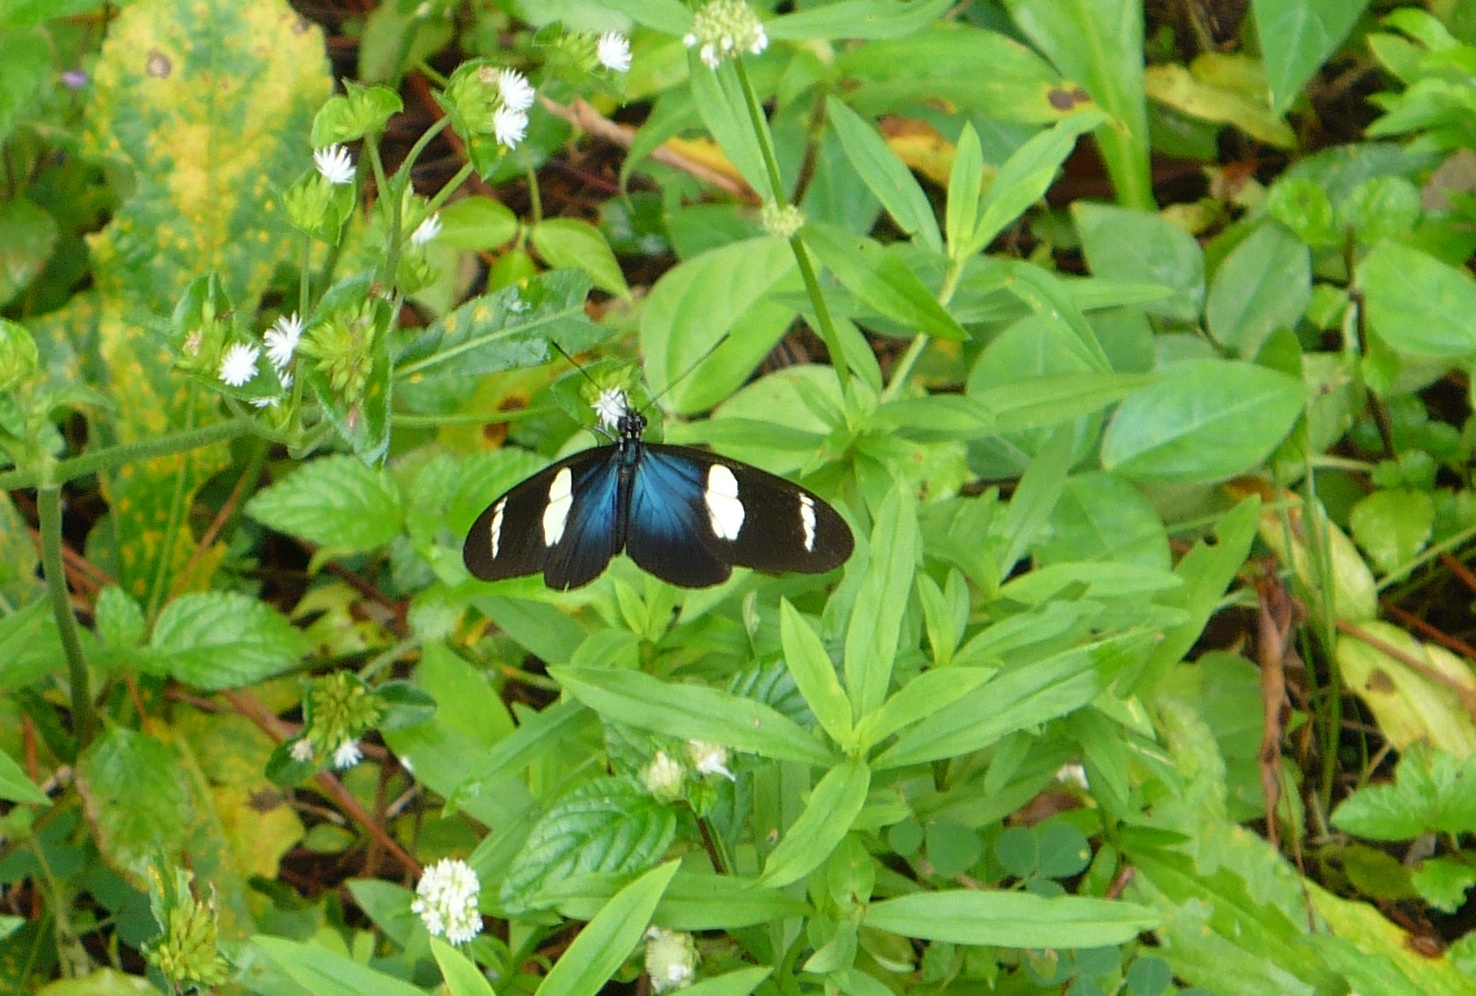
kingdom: Animalia
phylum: Arthropoda
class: Insecta
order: Lepidoptera
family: Nymphalidae
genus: Heliconius
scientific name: Heliconius sara
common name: Sara longwing
